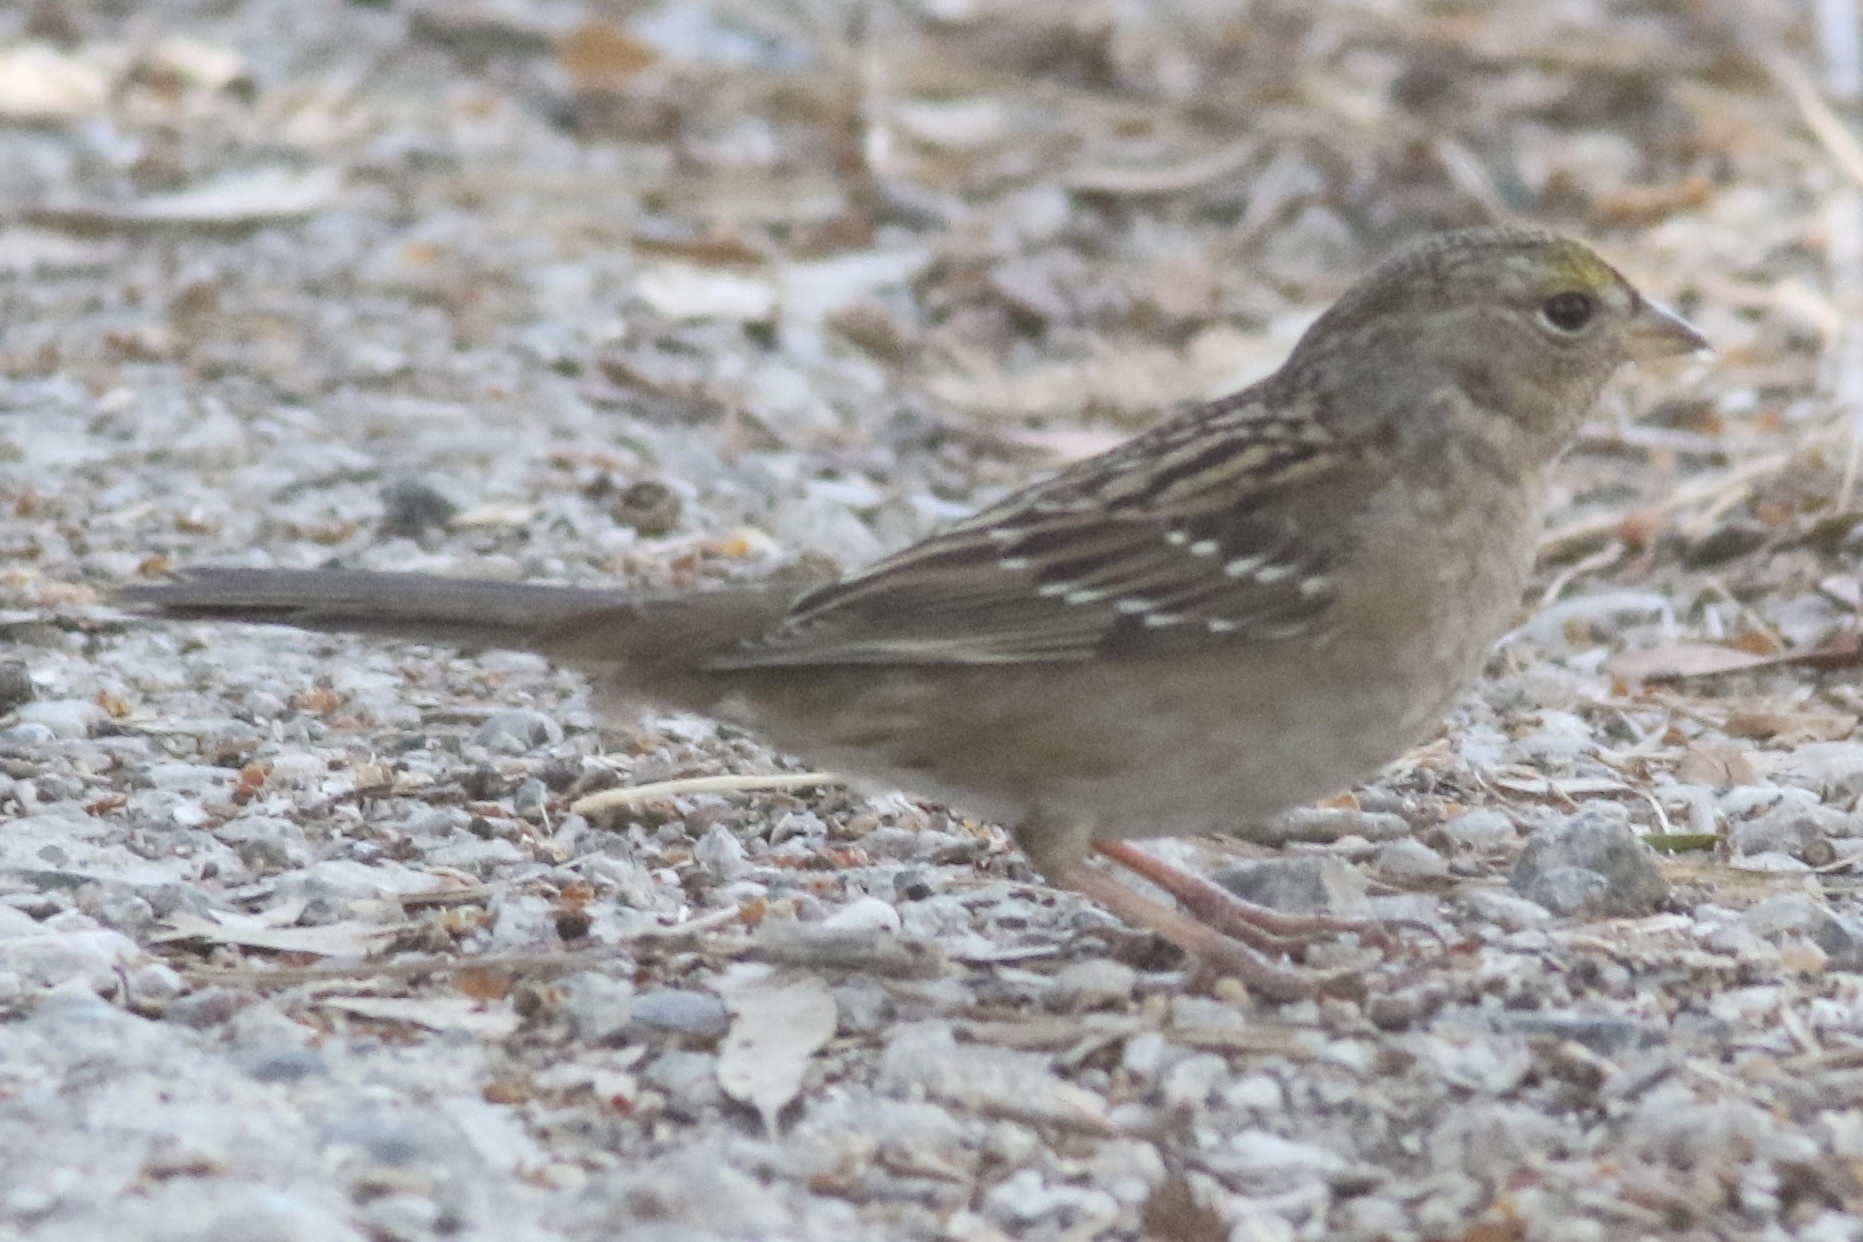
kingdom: Animalia
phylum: Chordata
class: Aves
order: Passeriformes
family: Passerellidae
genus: Zonotrichia
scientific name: Zonotrichia atricapilla
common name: Golden-crowned sparrow
